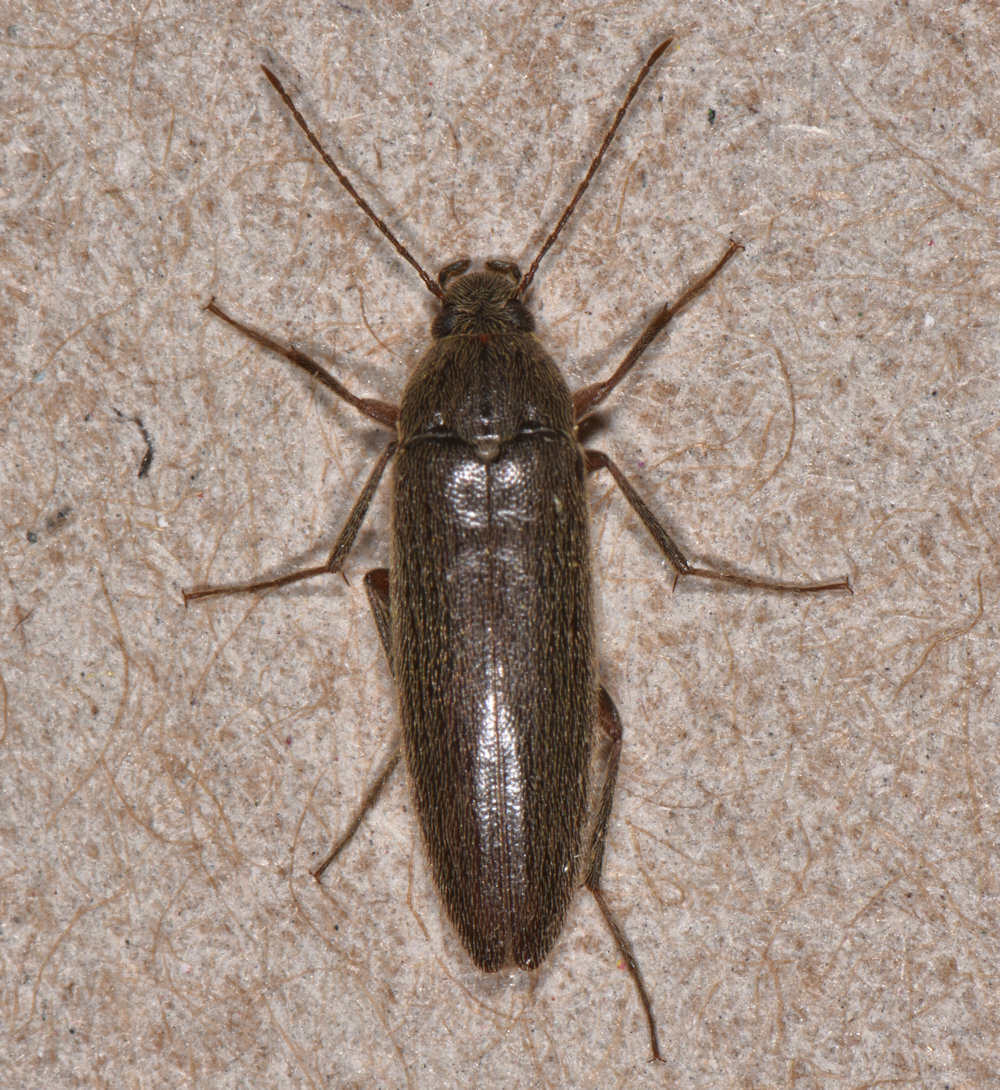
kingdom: Animalia
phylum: Arthropoda
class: Insecta
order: Coleoptera
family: Synchroidae
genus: Synchroa
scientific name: Synchroa punctata
